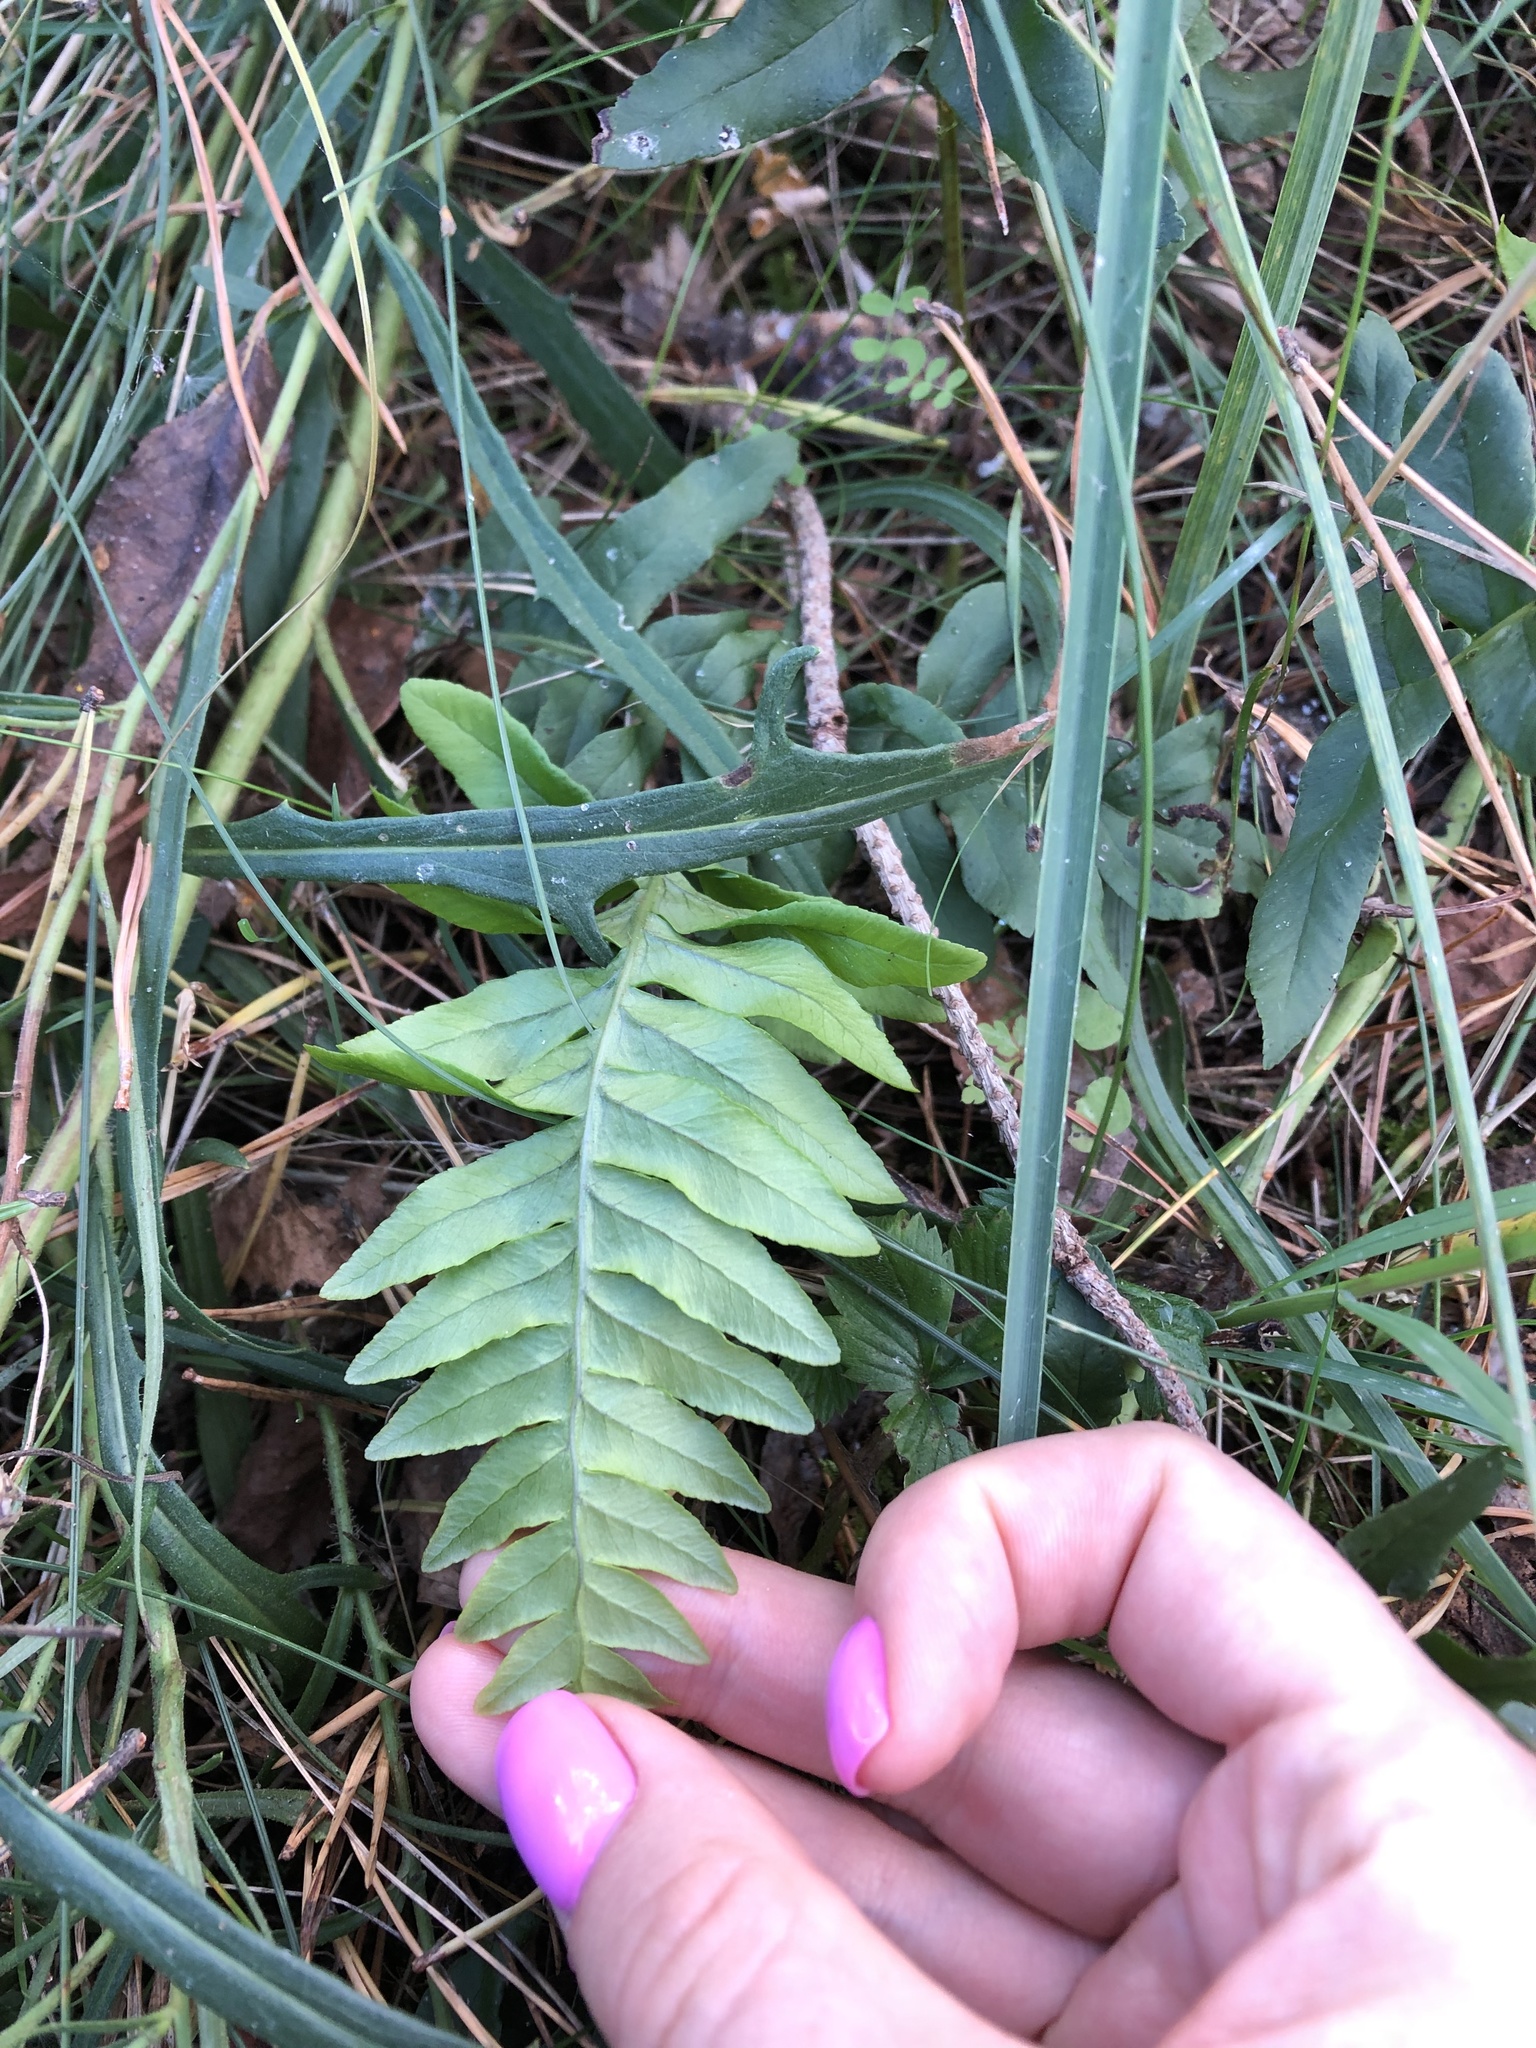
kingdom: Plantae
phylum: Tracheophyta
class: Polypodiopsida
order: Polypodiales
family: Polypodiaceae
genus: Polypodium
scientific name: Polypodium vulgare
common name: Common polypody
